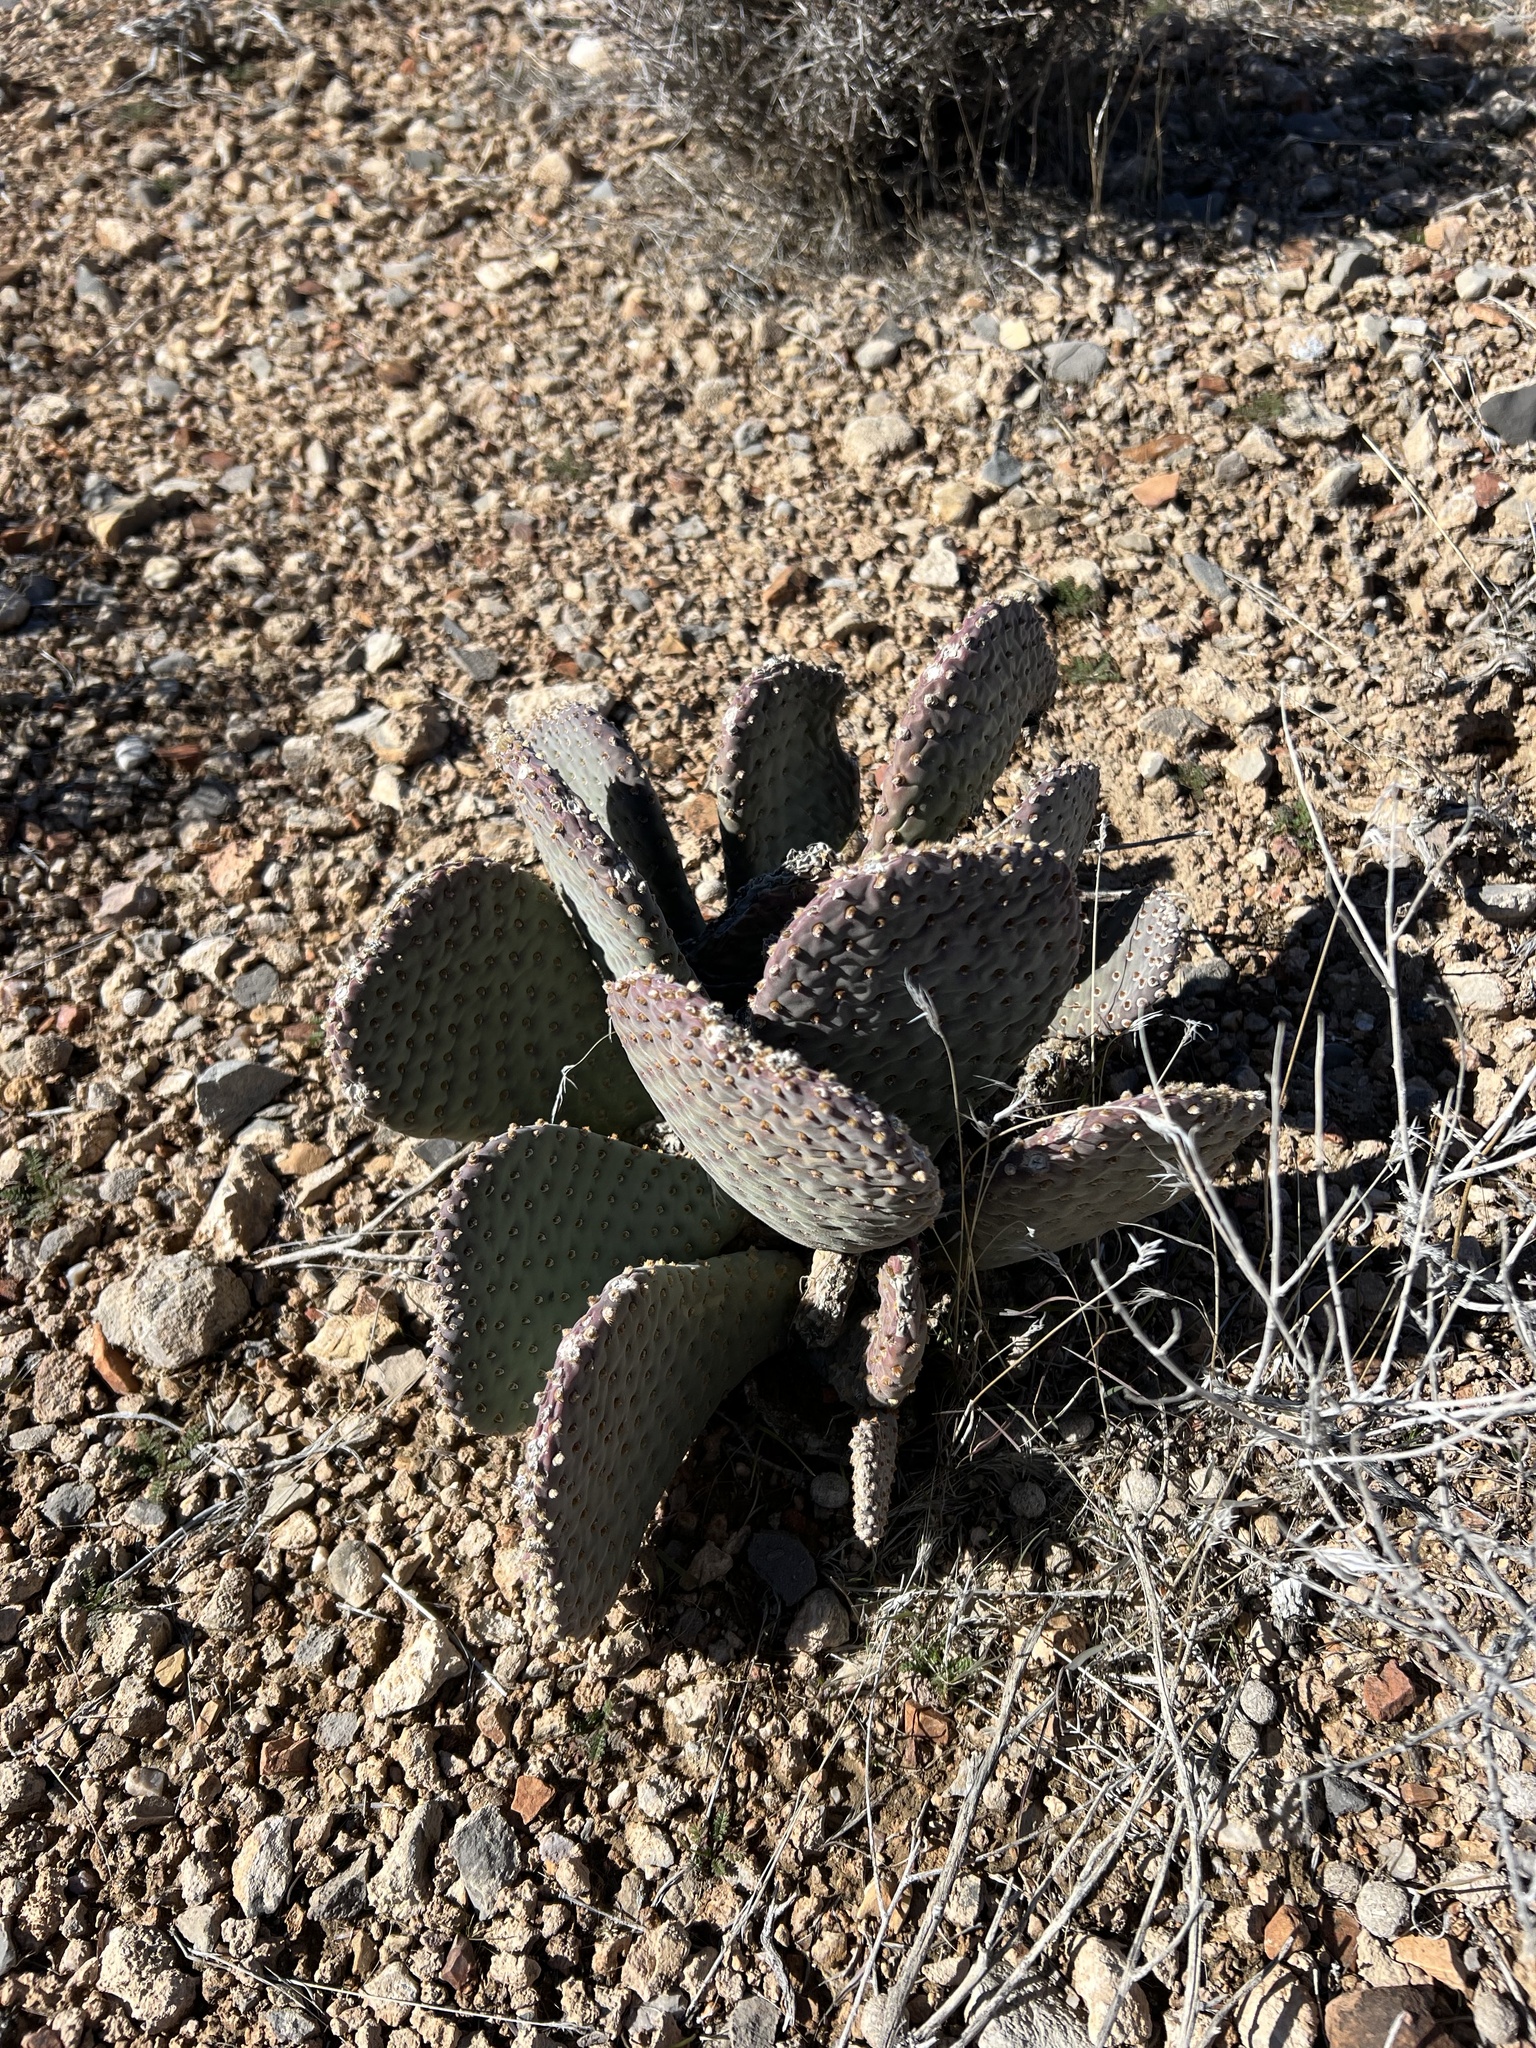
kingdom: Plantae
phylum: Tracheophyta
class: Magnoliopsida
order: Caryophyllales
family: Cactaceae
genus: Opuntia
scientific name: Opuntia basilaris
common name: Beavertail prickly-pear
